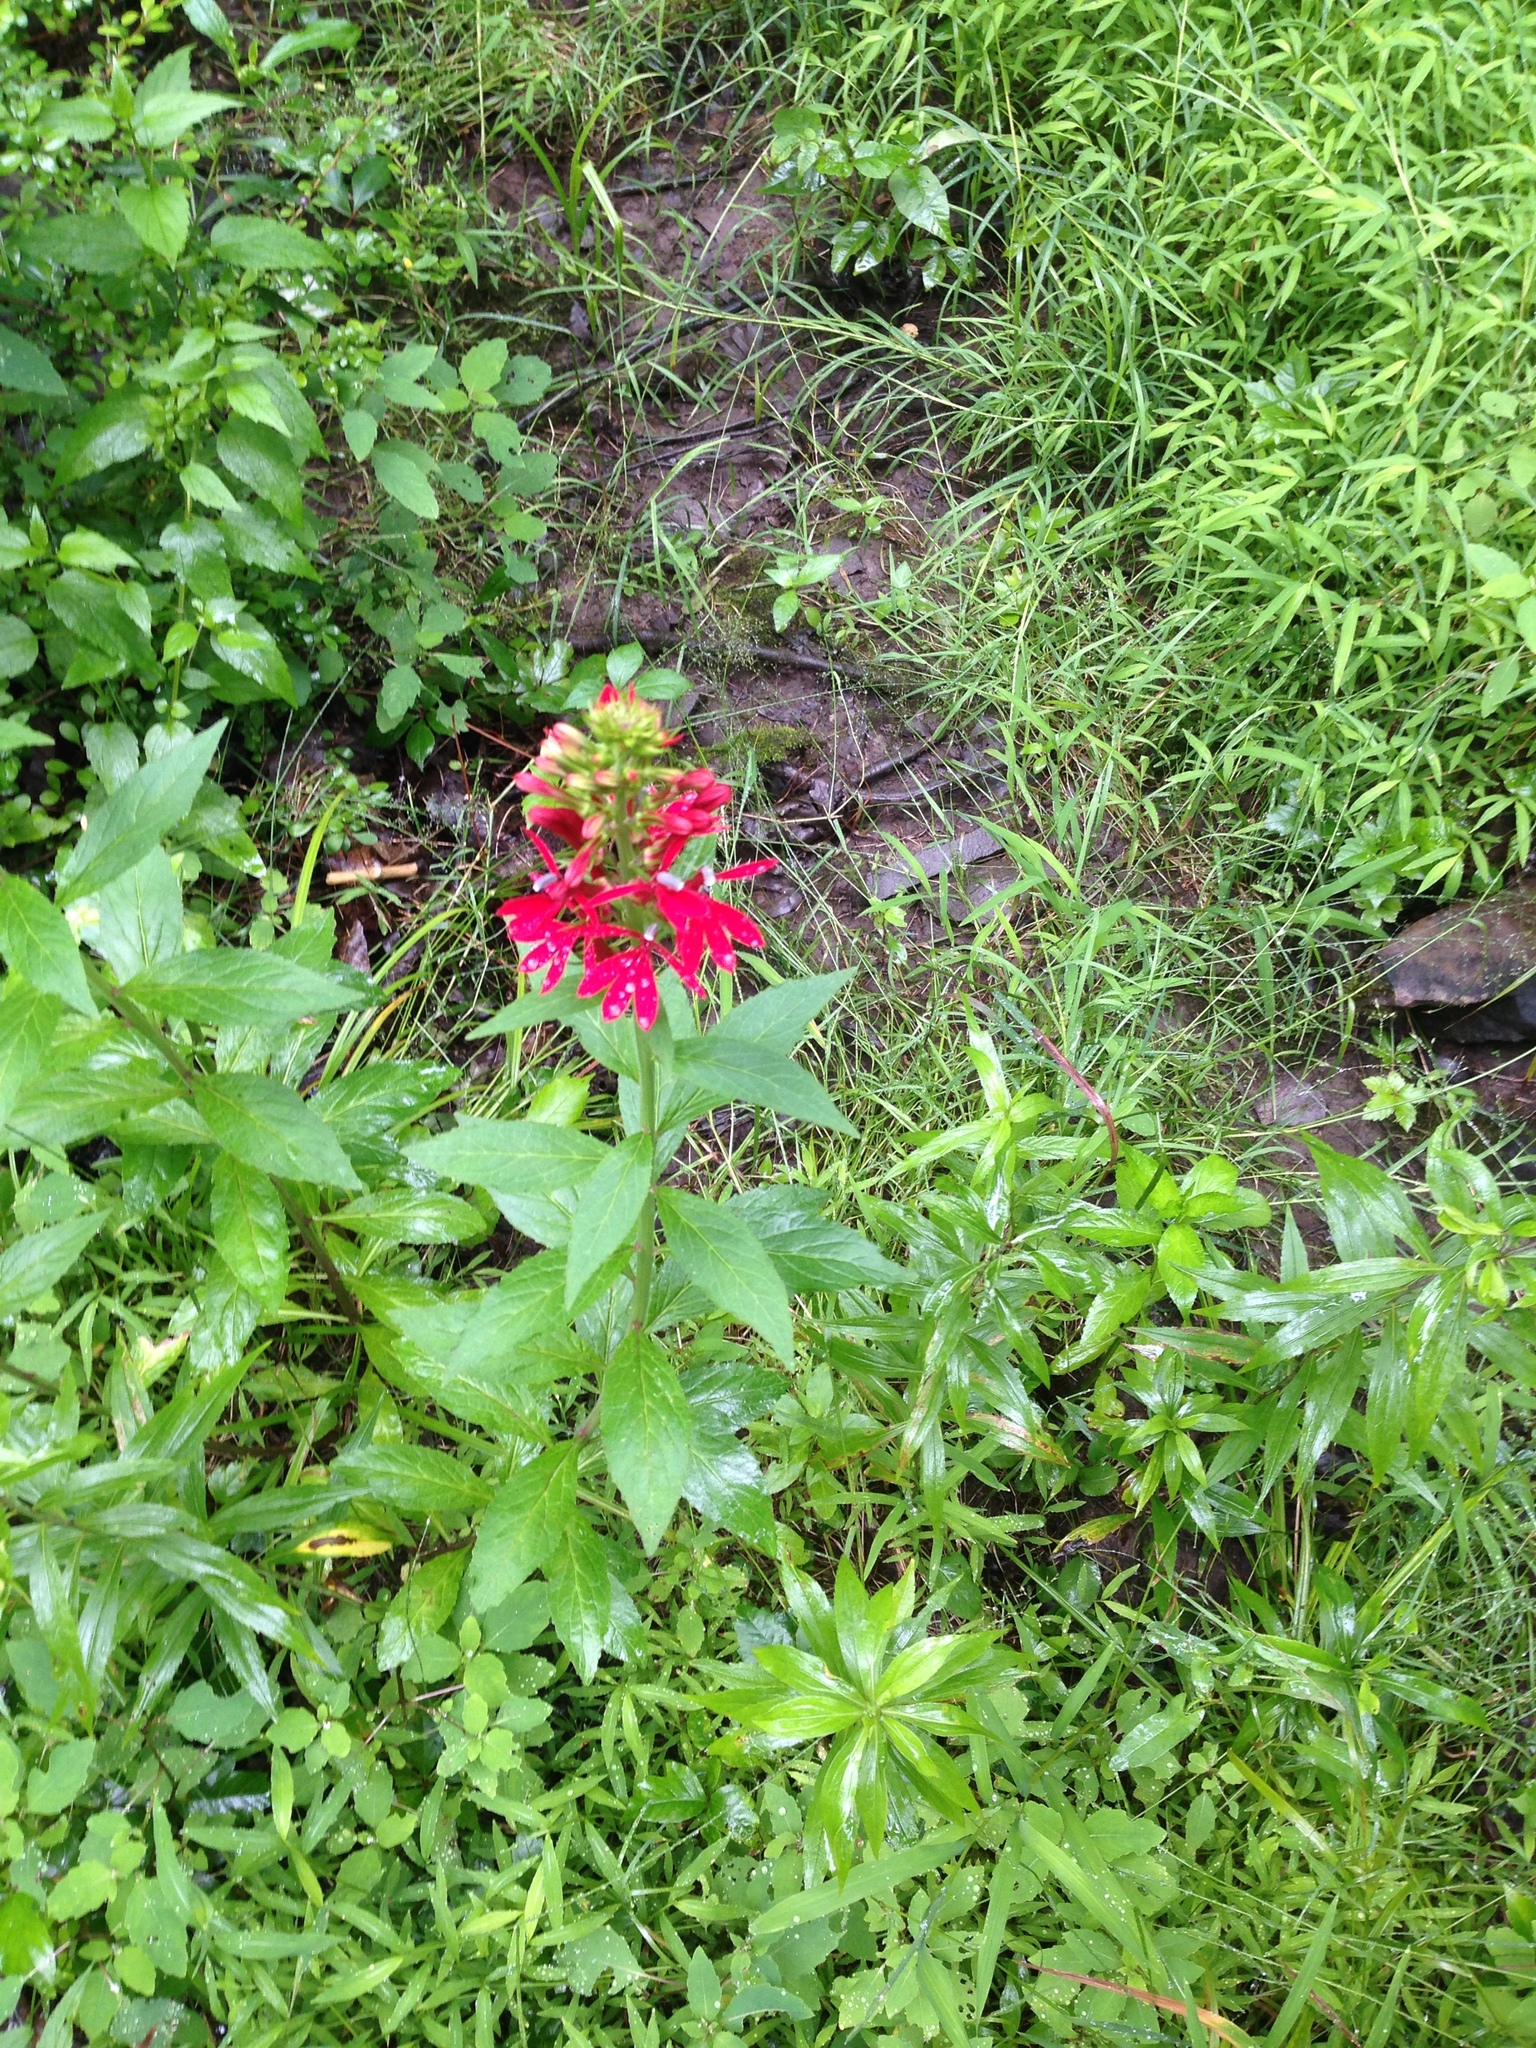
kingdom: Plantae
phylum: Tracheophyta
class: Magnoliopsida
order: Asterales
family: Campanulaceae
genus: Lobelia
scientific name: Lobelia cardinalis
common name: Cardinal flower
